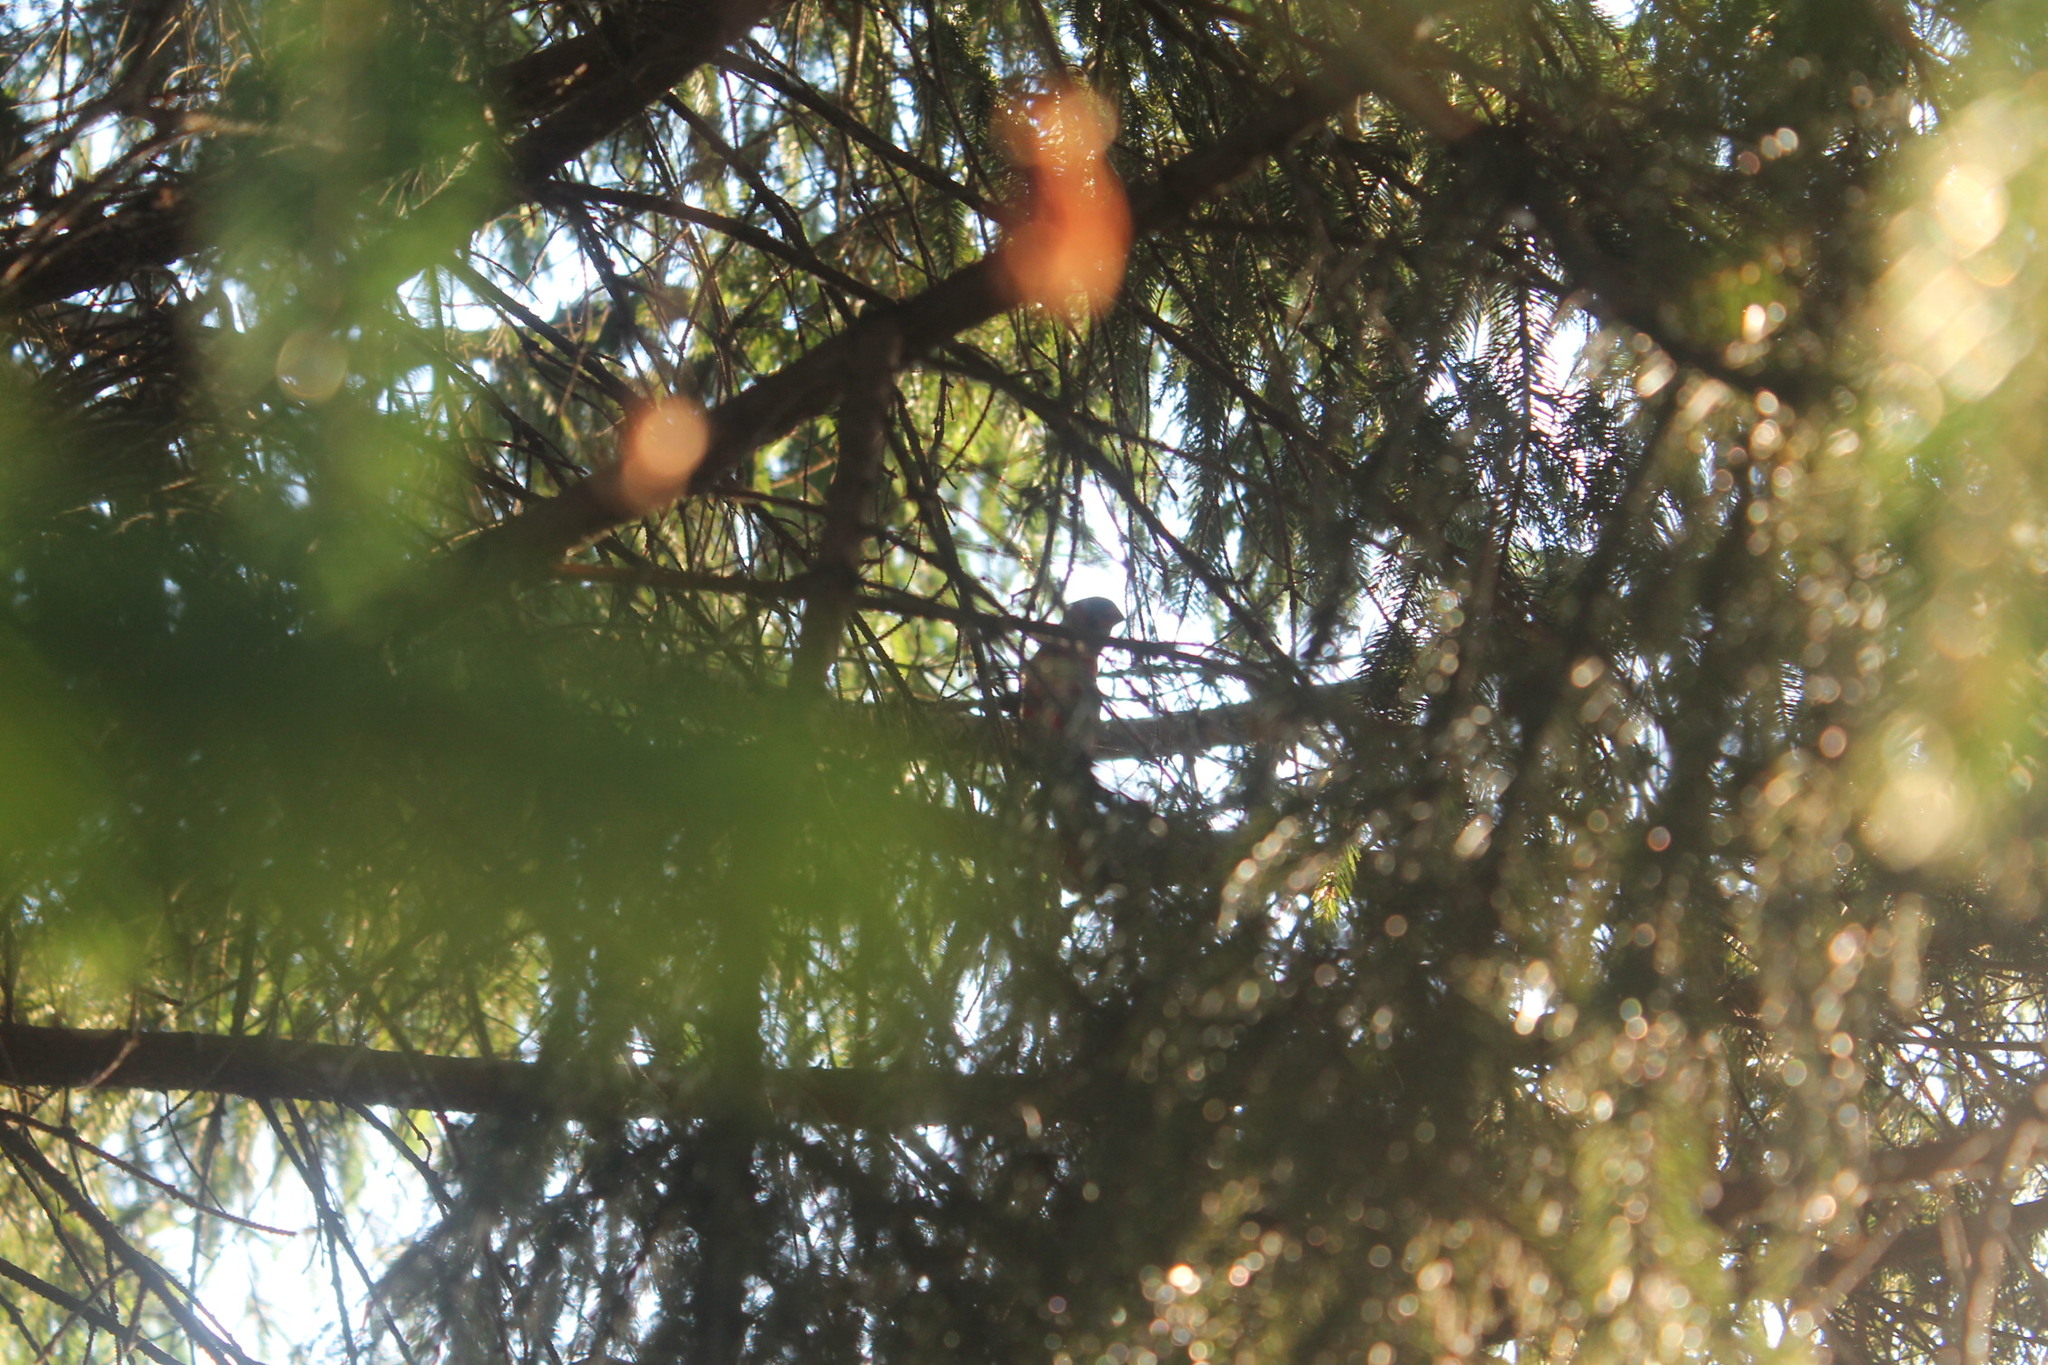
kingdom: Animalia
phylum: Chordata
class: Aves
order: Passeriformes
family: Cardinalidae
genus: Cardinalis
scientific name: Cardinalis cardinalis
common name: Northern cardinal
